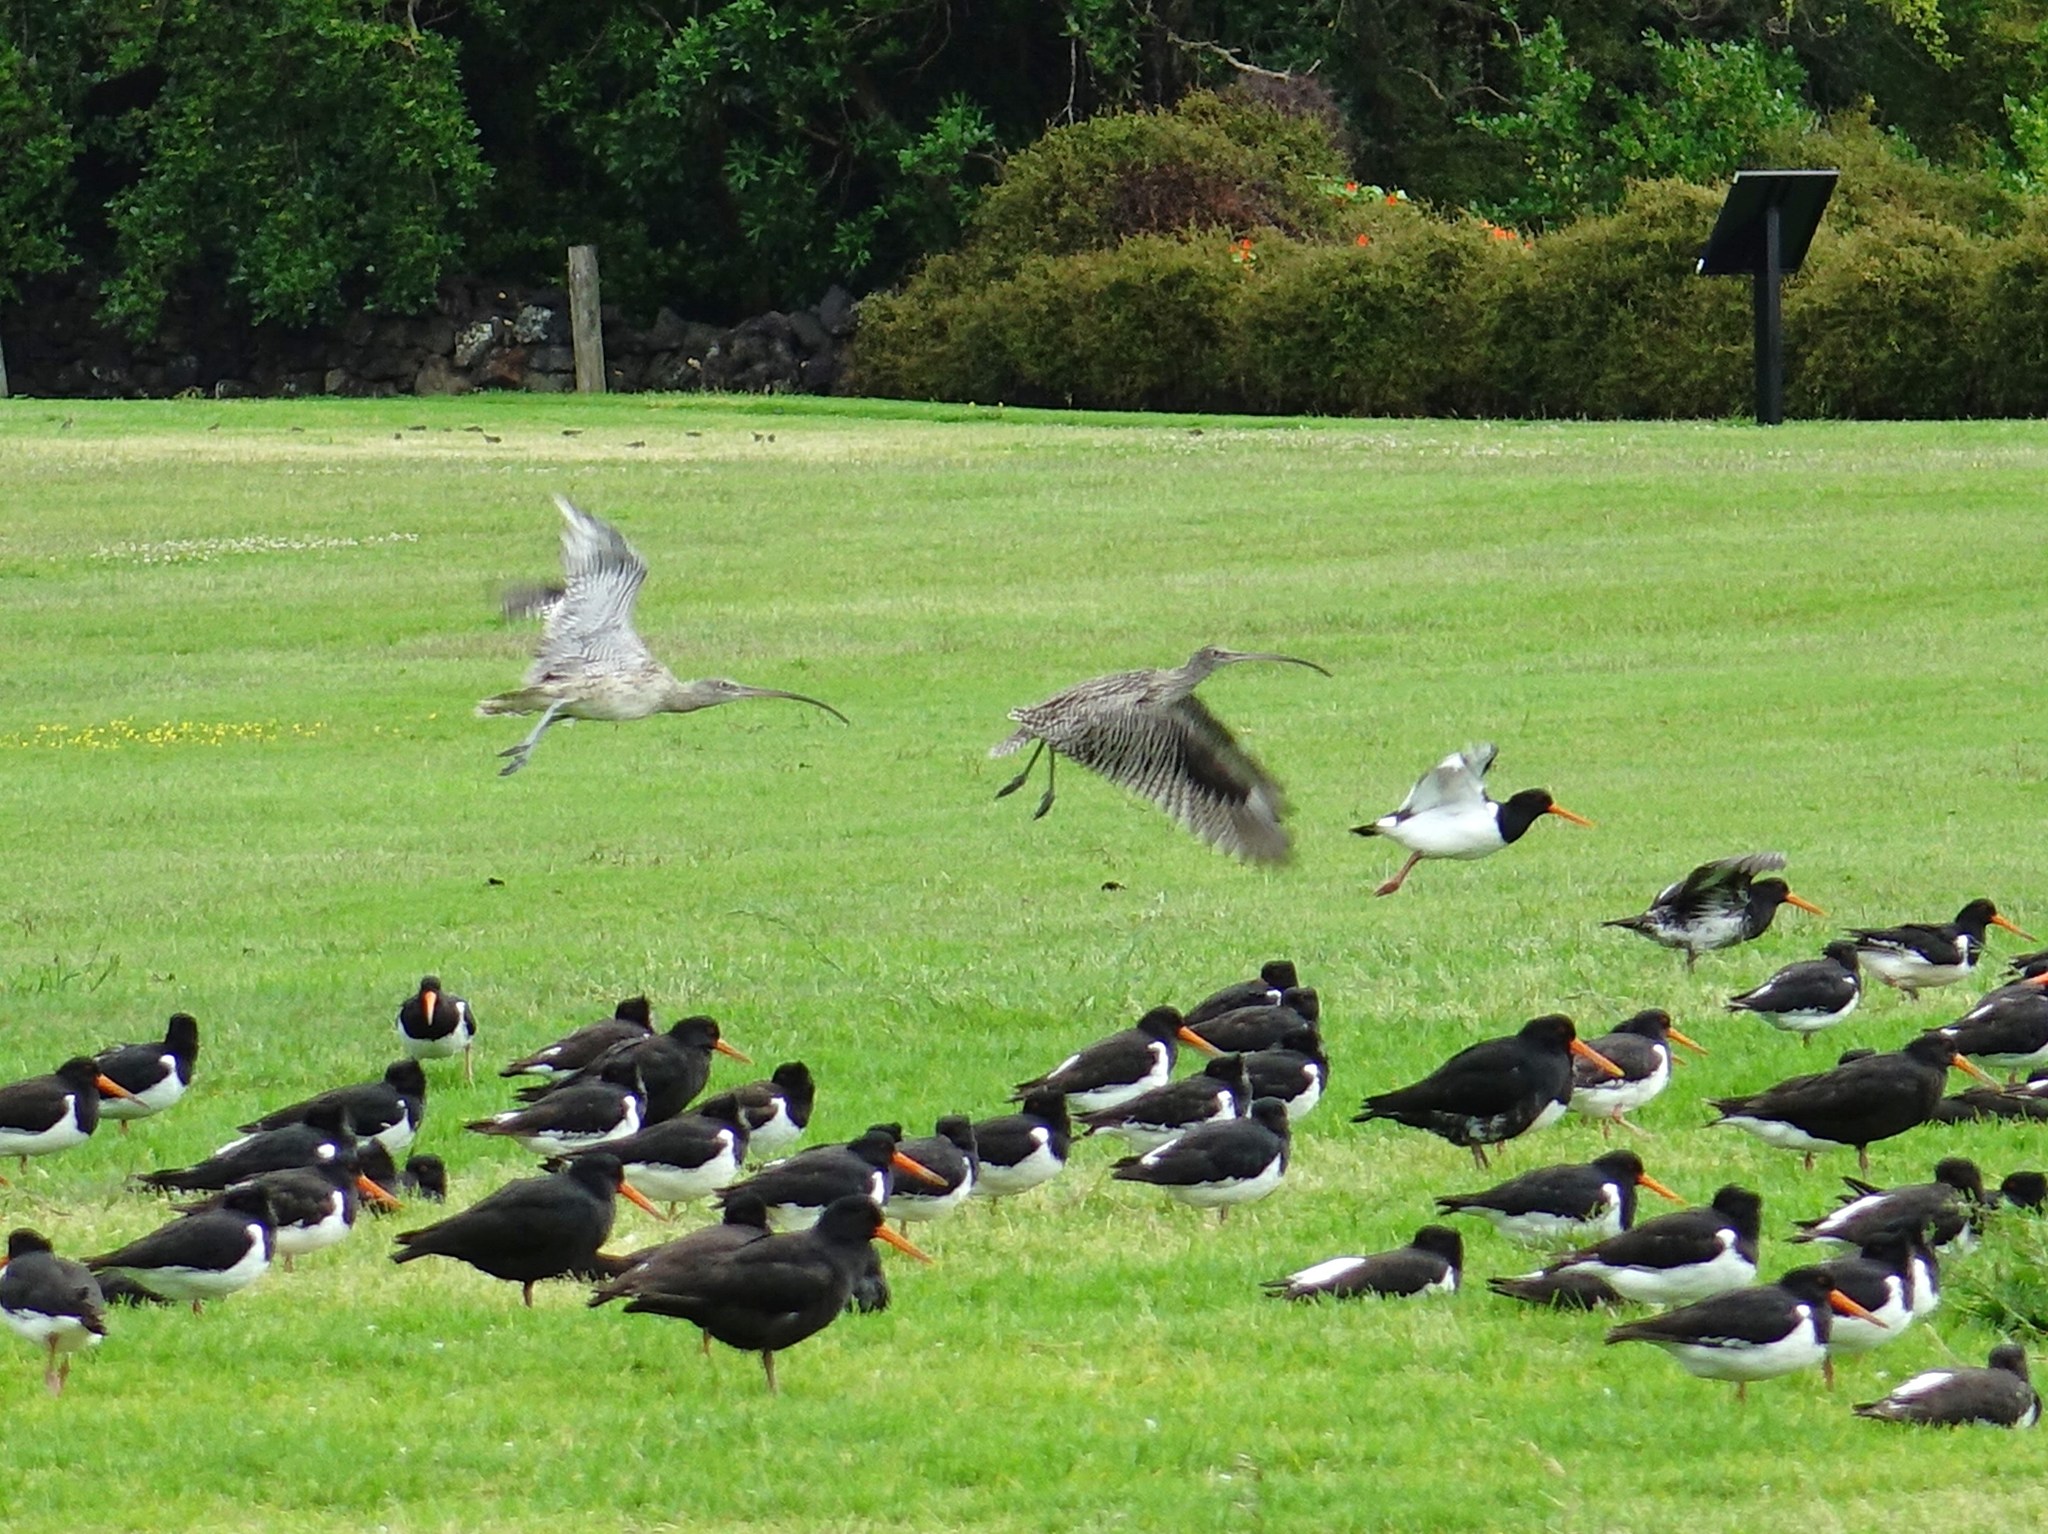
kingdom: Animalia
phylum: Chordata
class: Aves
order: Charadriiformes
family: Scolopacidae
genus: Numenius
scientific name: Numenius madagascariensis
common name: Far eastern curlew
